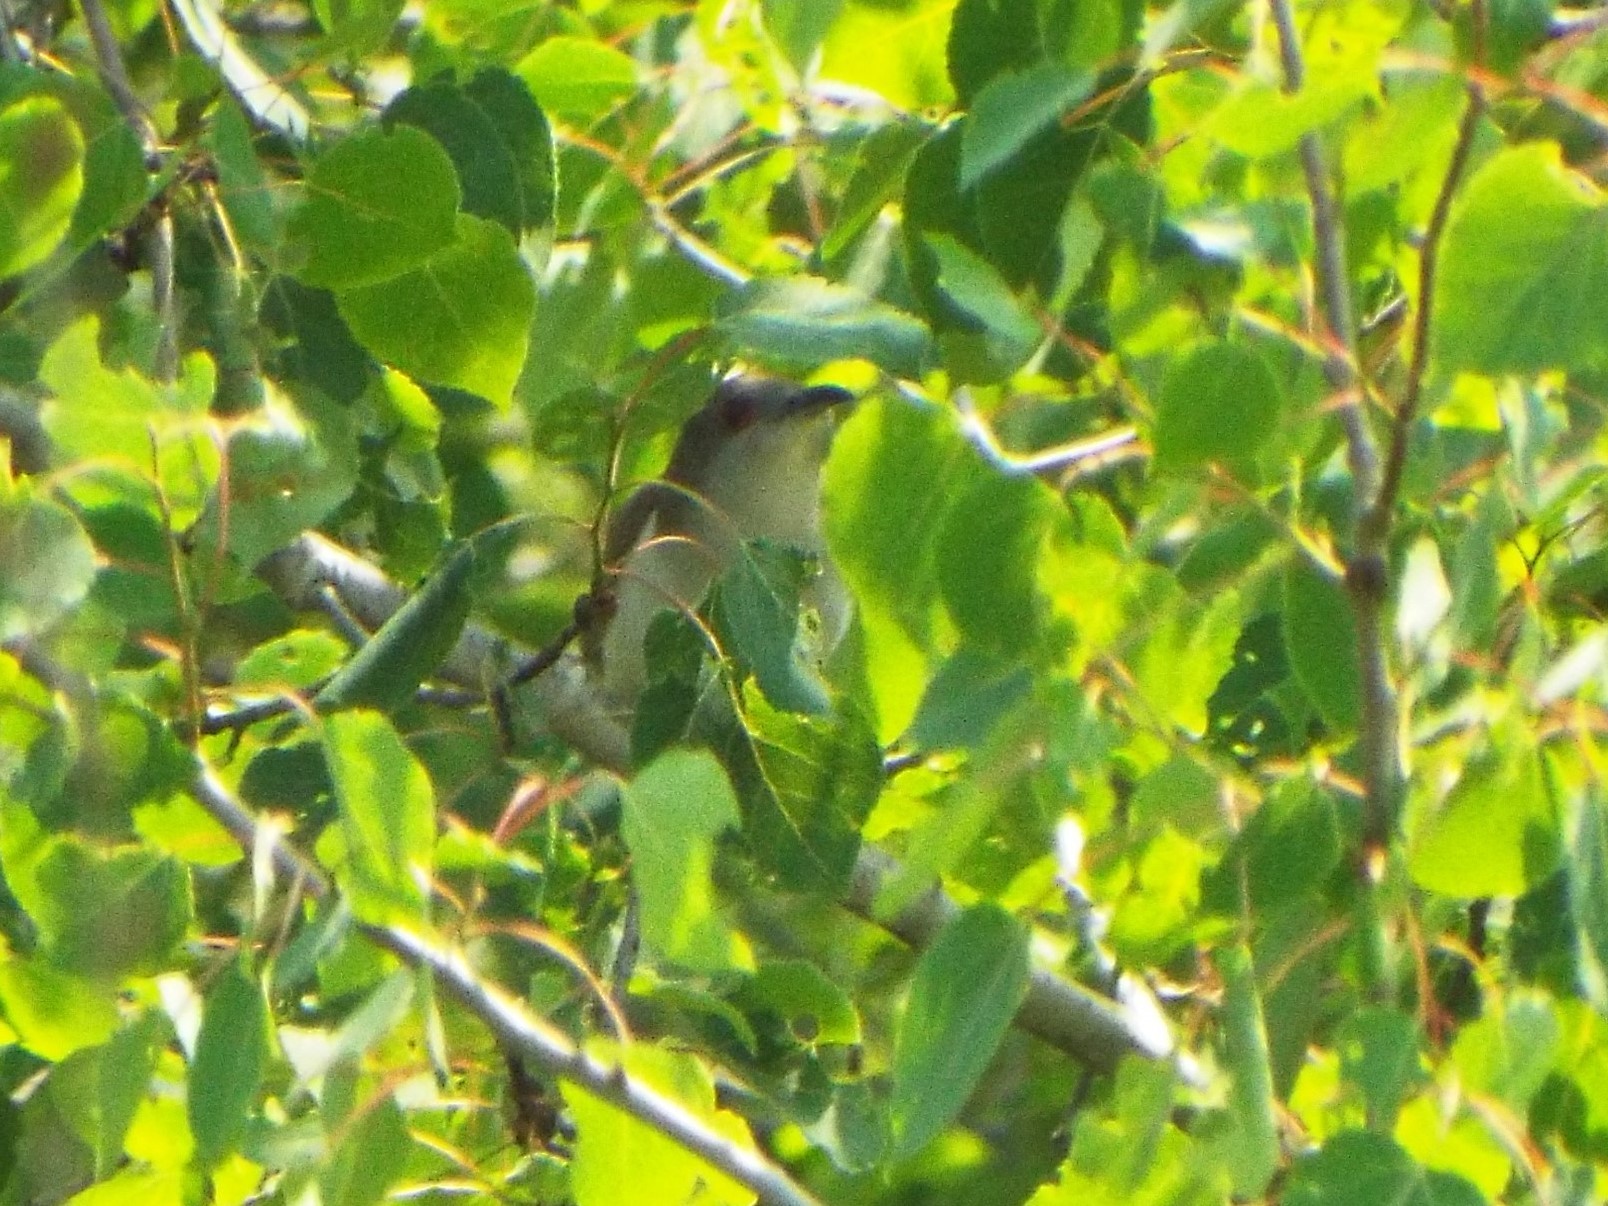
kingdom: Animalia
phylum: Chordata
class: Aves
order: Cuculiformes
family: Cuculidae
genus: Coccyzus
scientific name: Coccyzus erythropthalmus
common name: Black-billed cuckoo
